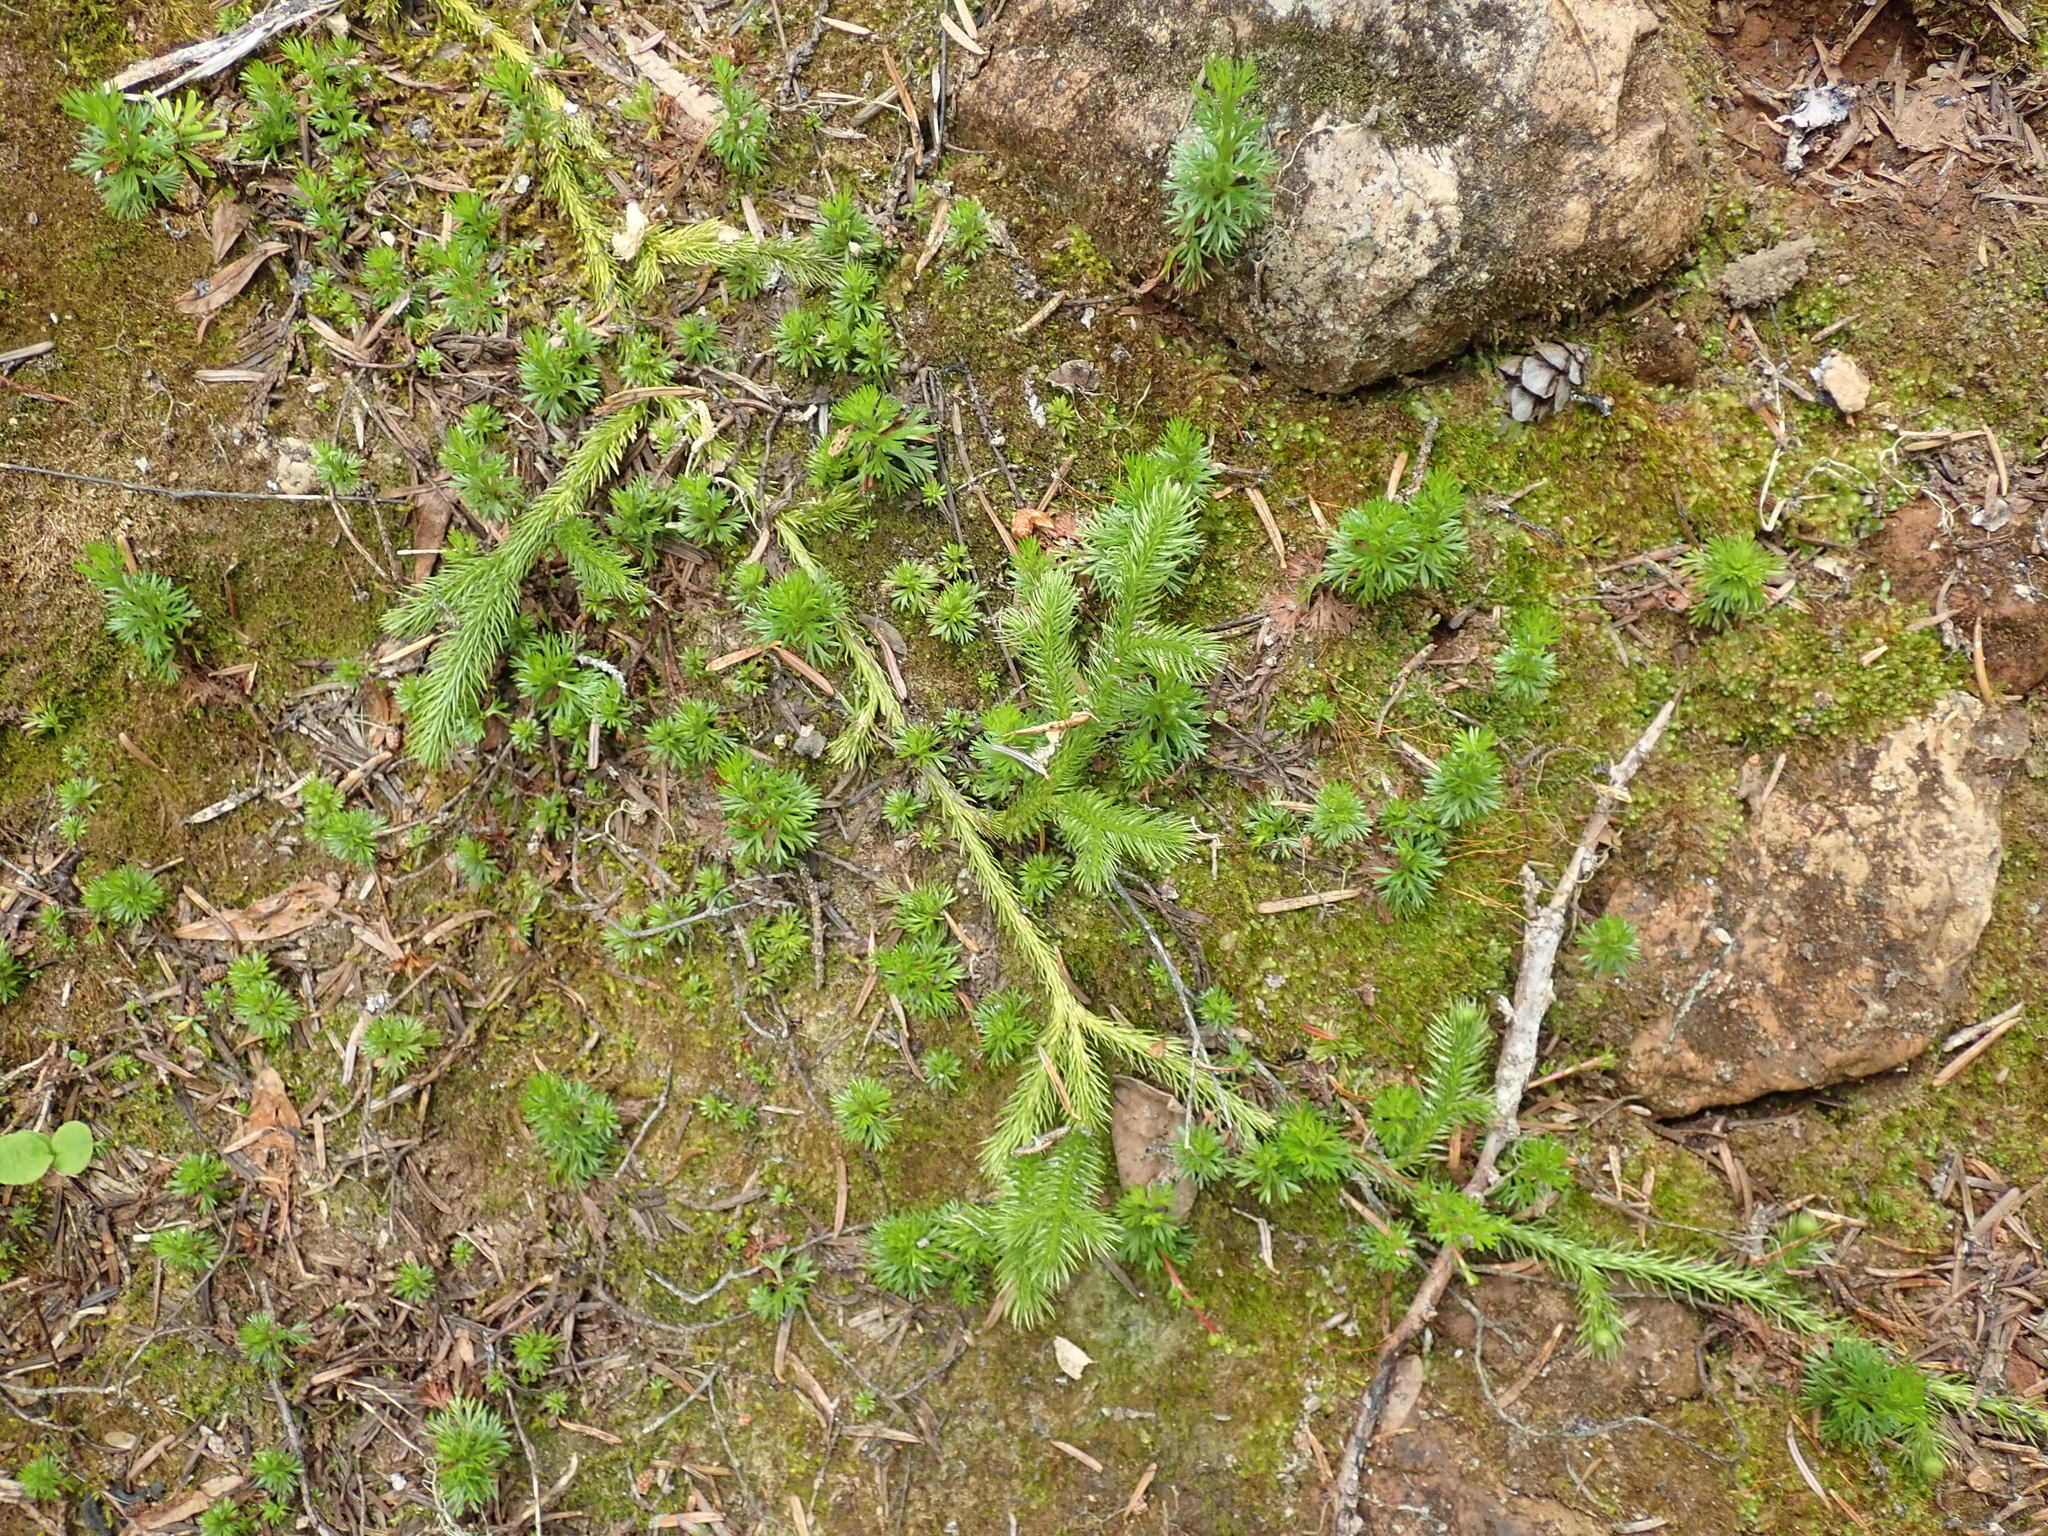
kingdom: Plantae
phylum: Tracheophyta
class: Lycopodiopsida
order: Lycopodiales
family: Lycopodiaceae
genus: Lycopodium
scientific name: Lycopodium clavatum
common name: Stag's-horn clubmoss
